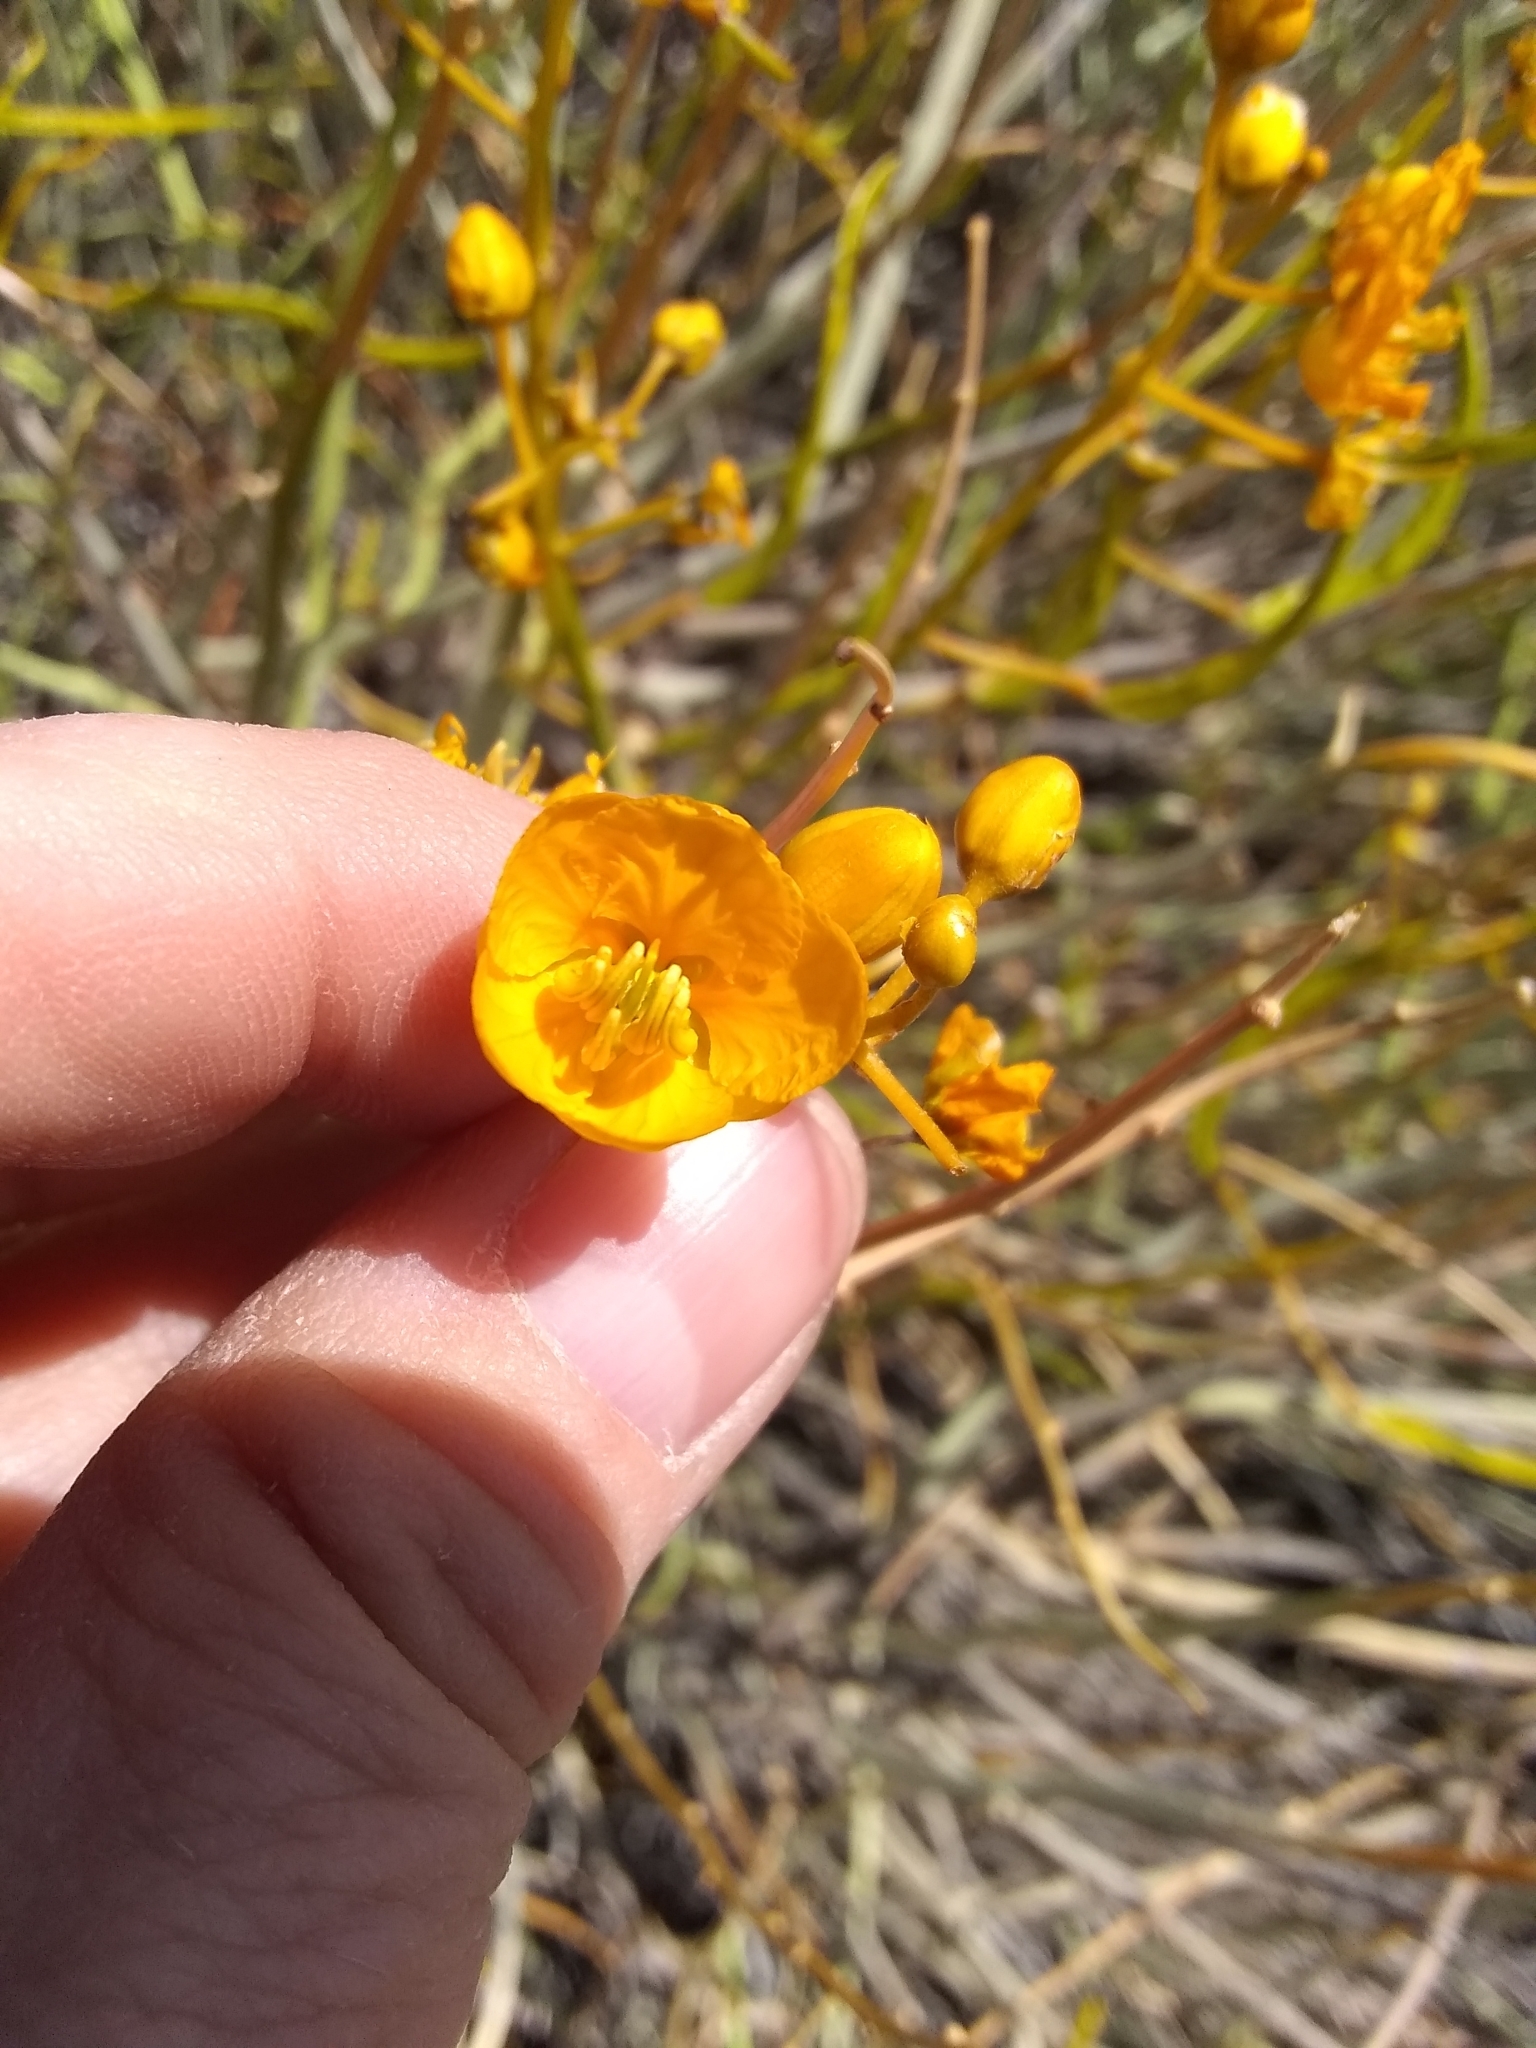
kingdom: Plantae
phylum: Tracheophyta
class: Magnoliopsida
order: Fabales
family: Fabaceae
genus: Senna
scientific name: Senna armata
